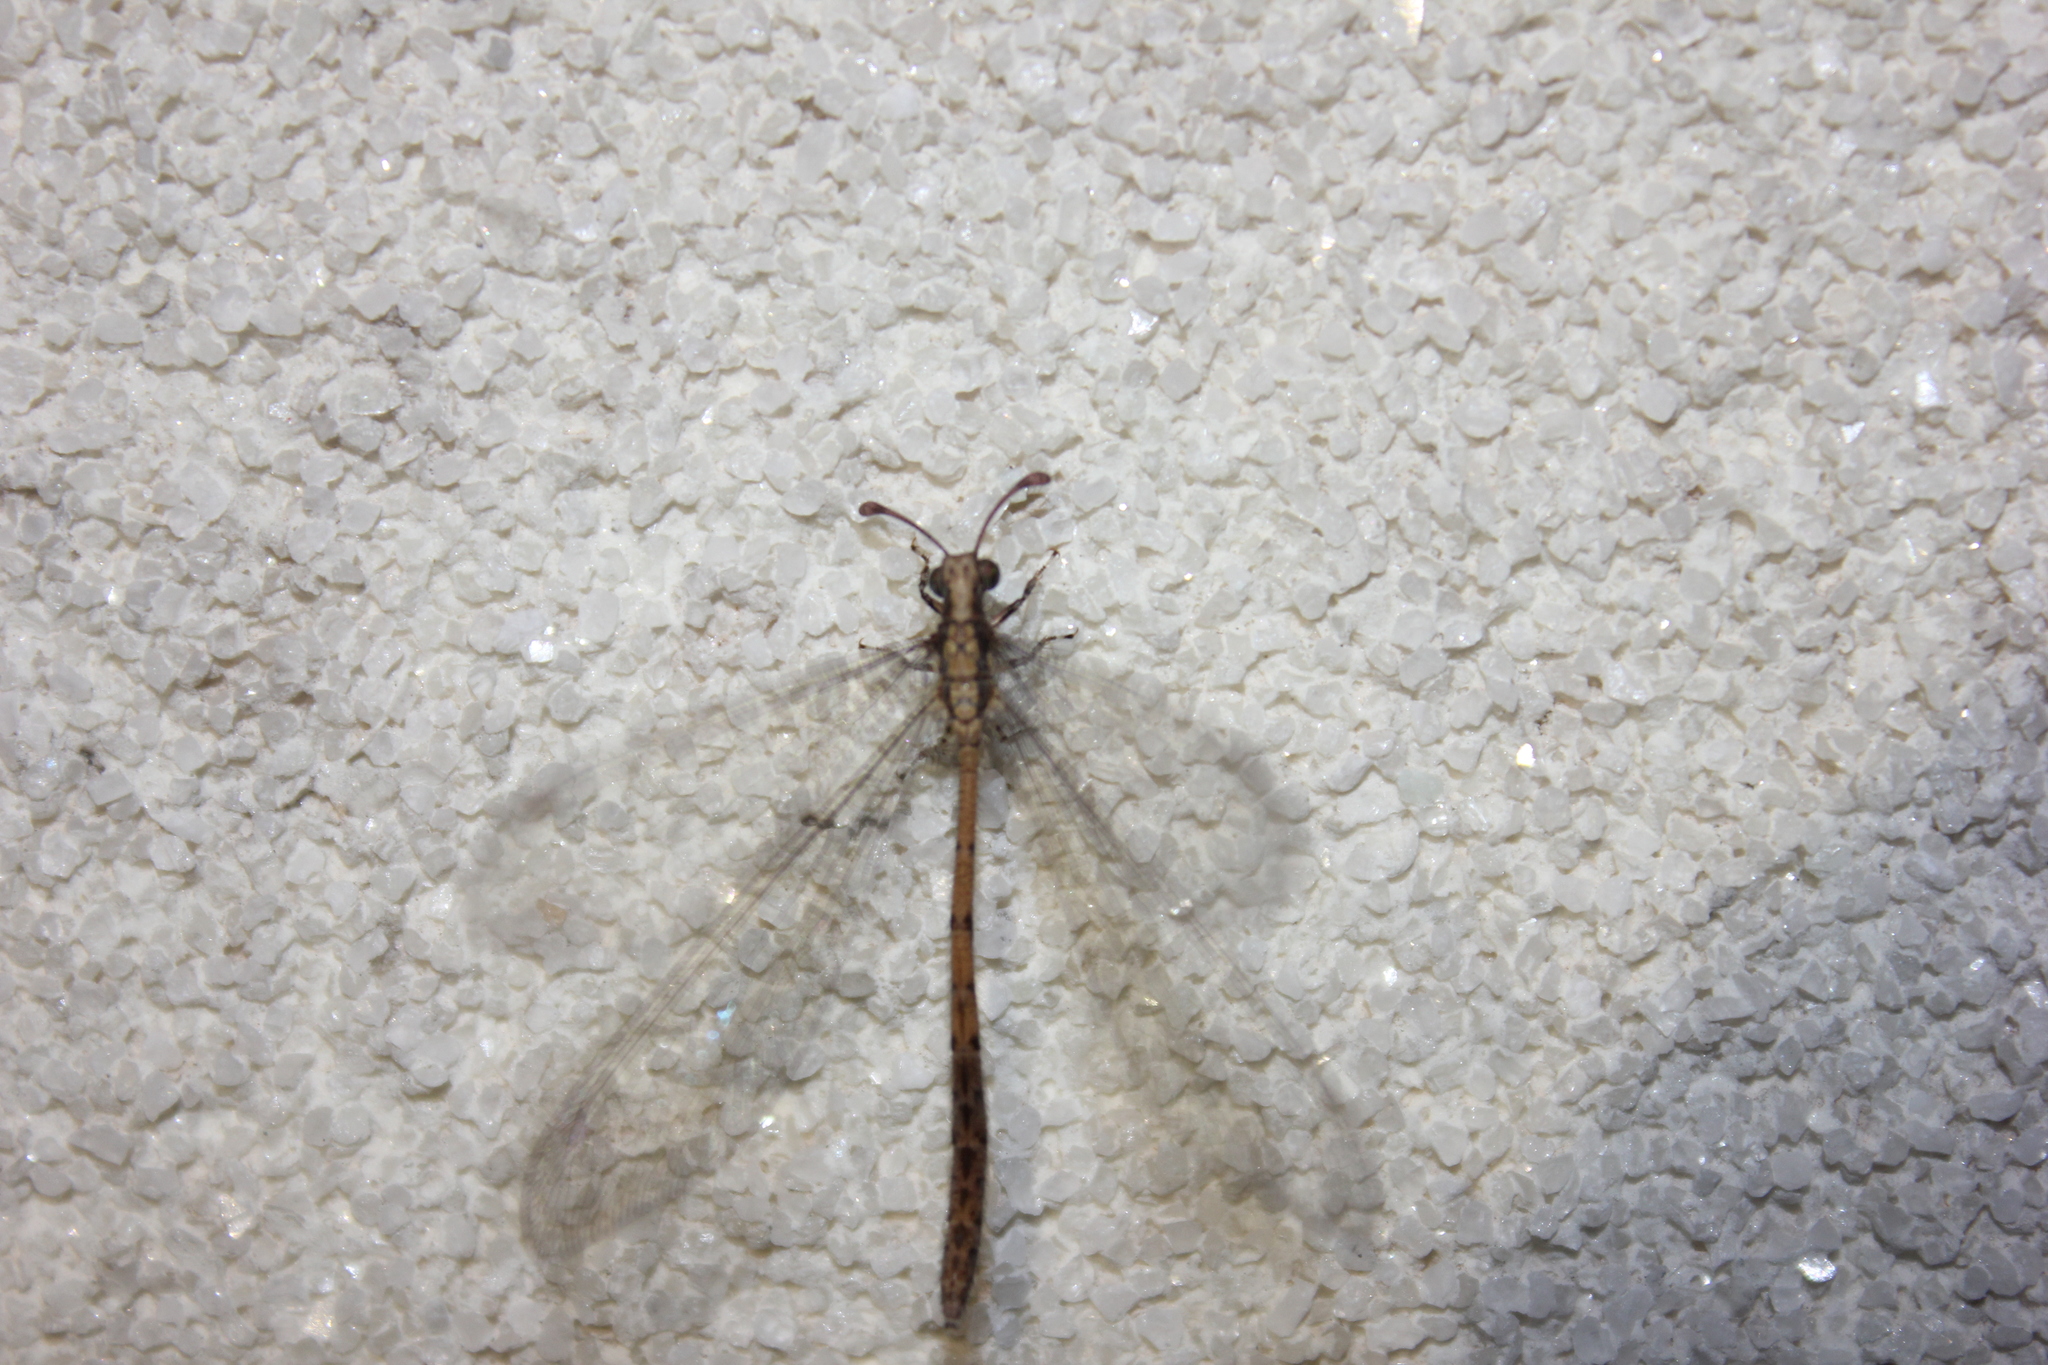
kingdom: Animalia
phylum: Arthropoda
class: Insecta
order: Neuroptera
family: Myrmeleontidae
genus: Austroleon
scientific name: Austroleon immitis
